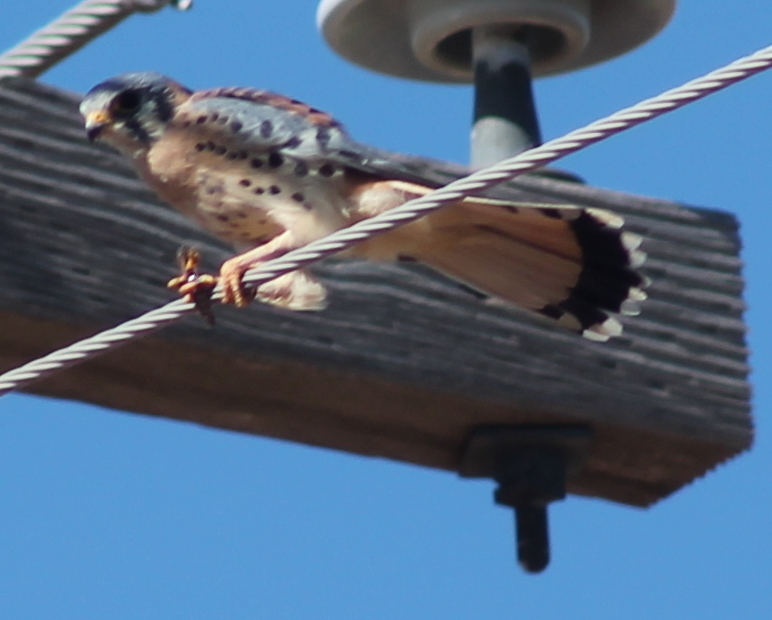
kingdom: Animalia
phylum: Chordata
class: Aves
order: Falconiformes
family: Falconidae
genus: Falco
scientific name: Falco sparverius
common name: American kestrel
